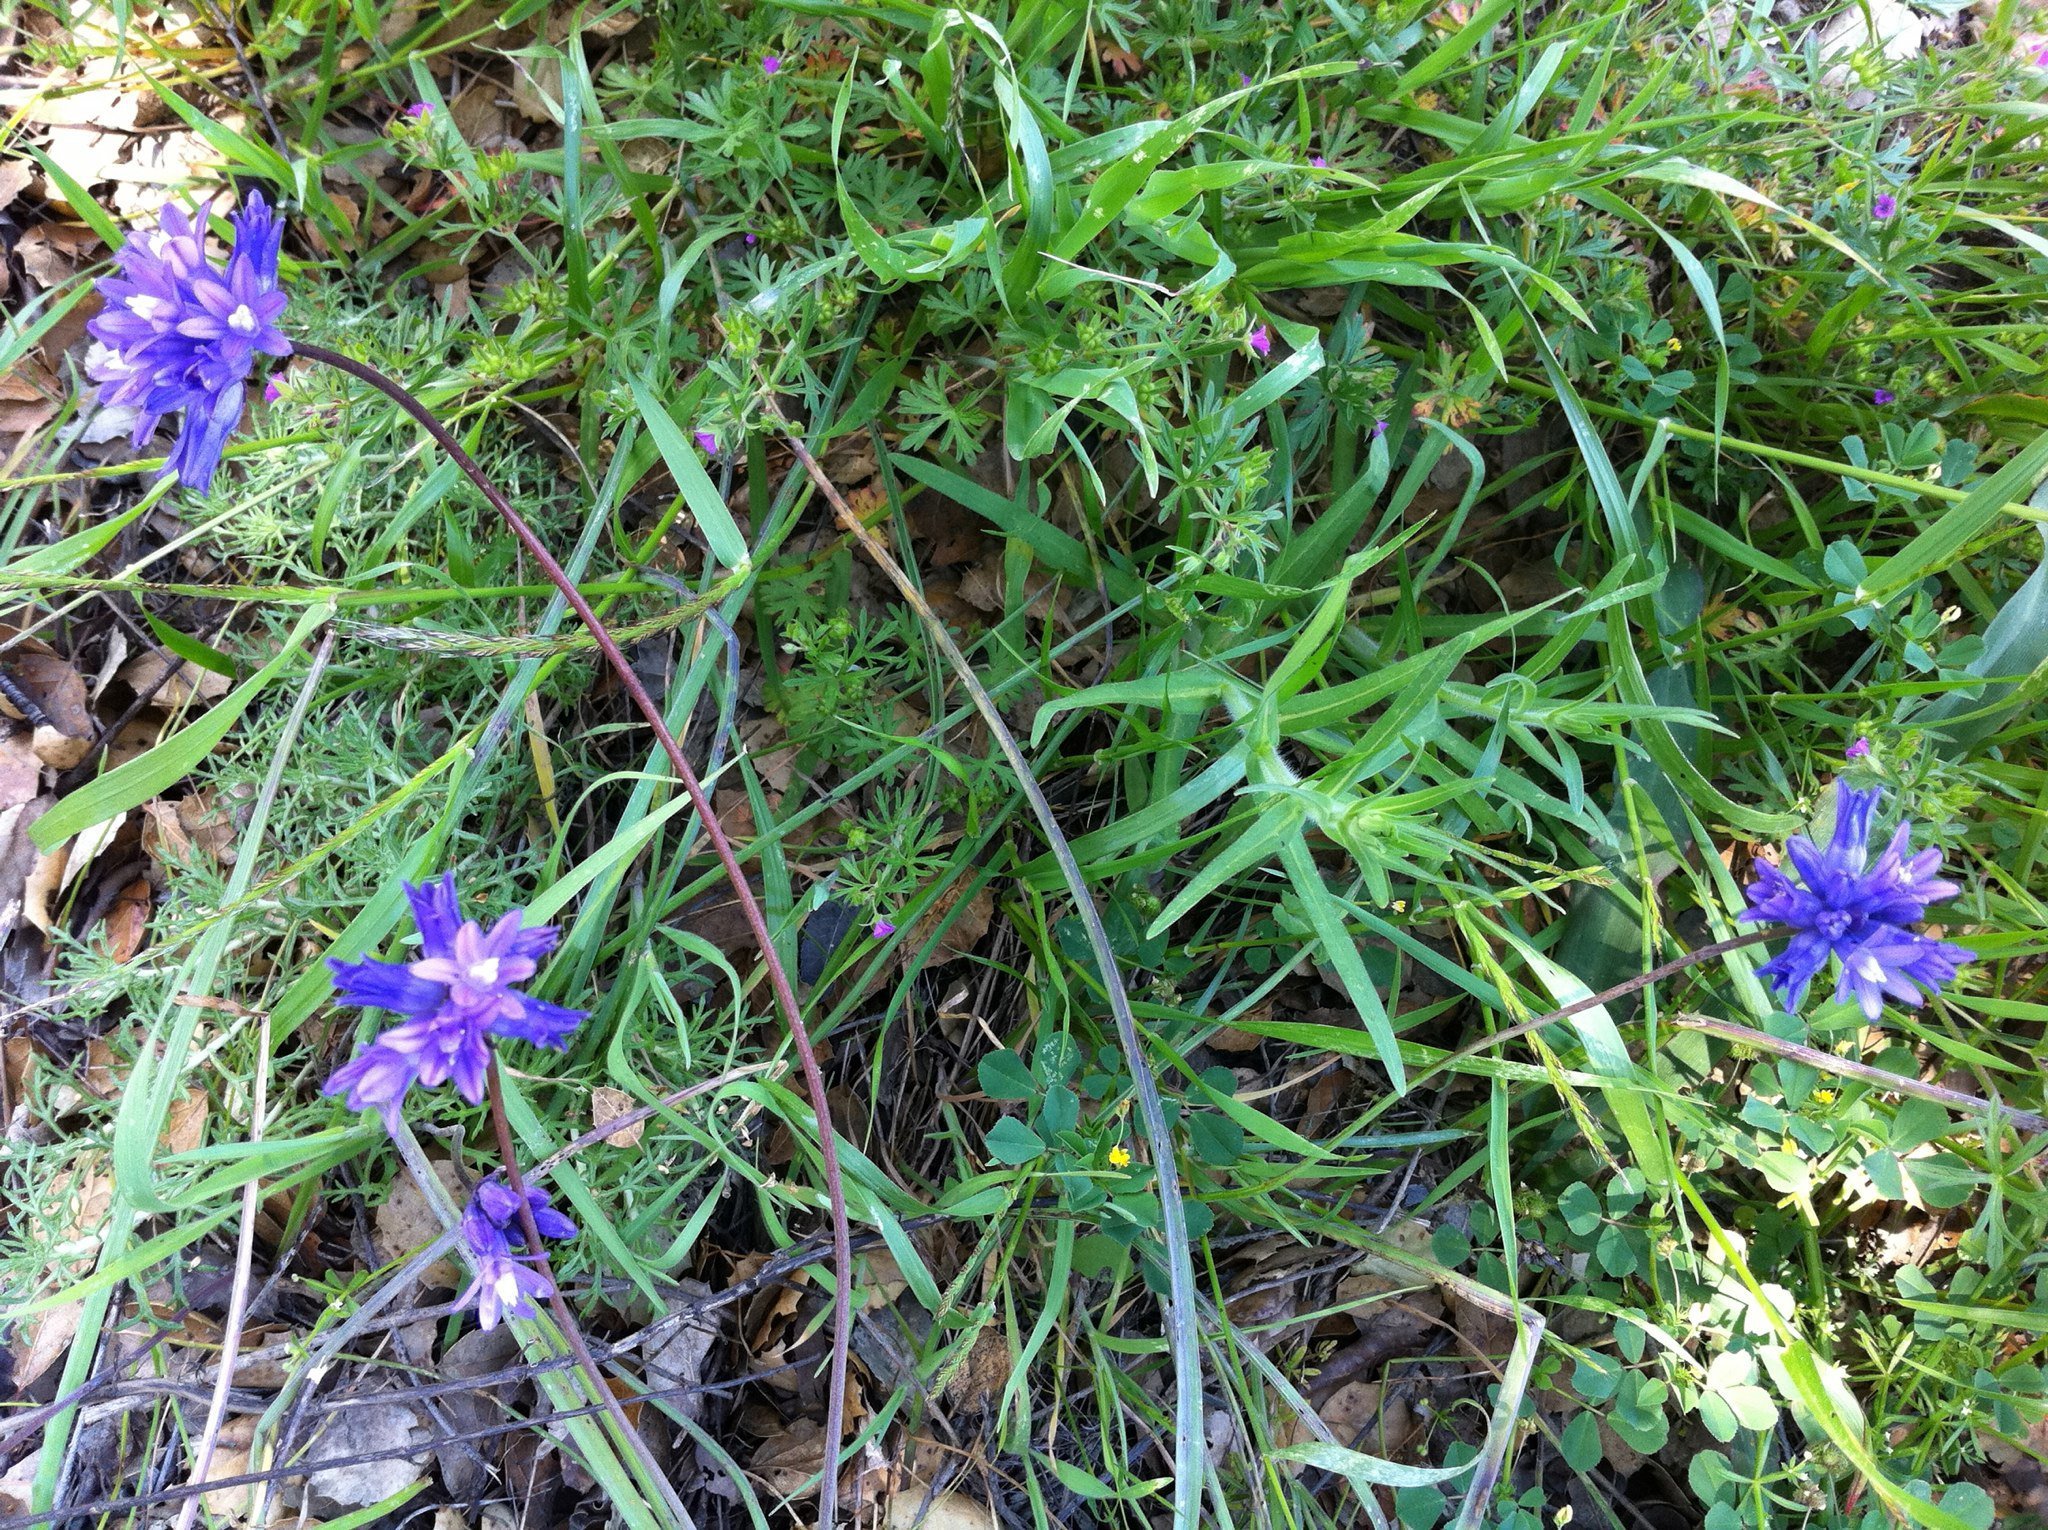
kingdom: Plantae
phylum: Tracheophyta
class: Liliopsida
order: Asparagales
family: Asparagaceae
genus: Dipterostemon
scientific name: Dipterostemon capitatus
